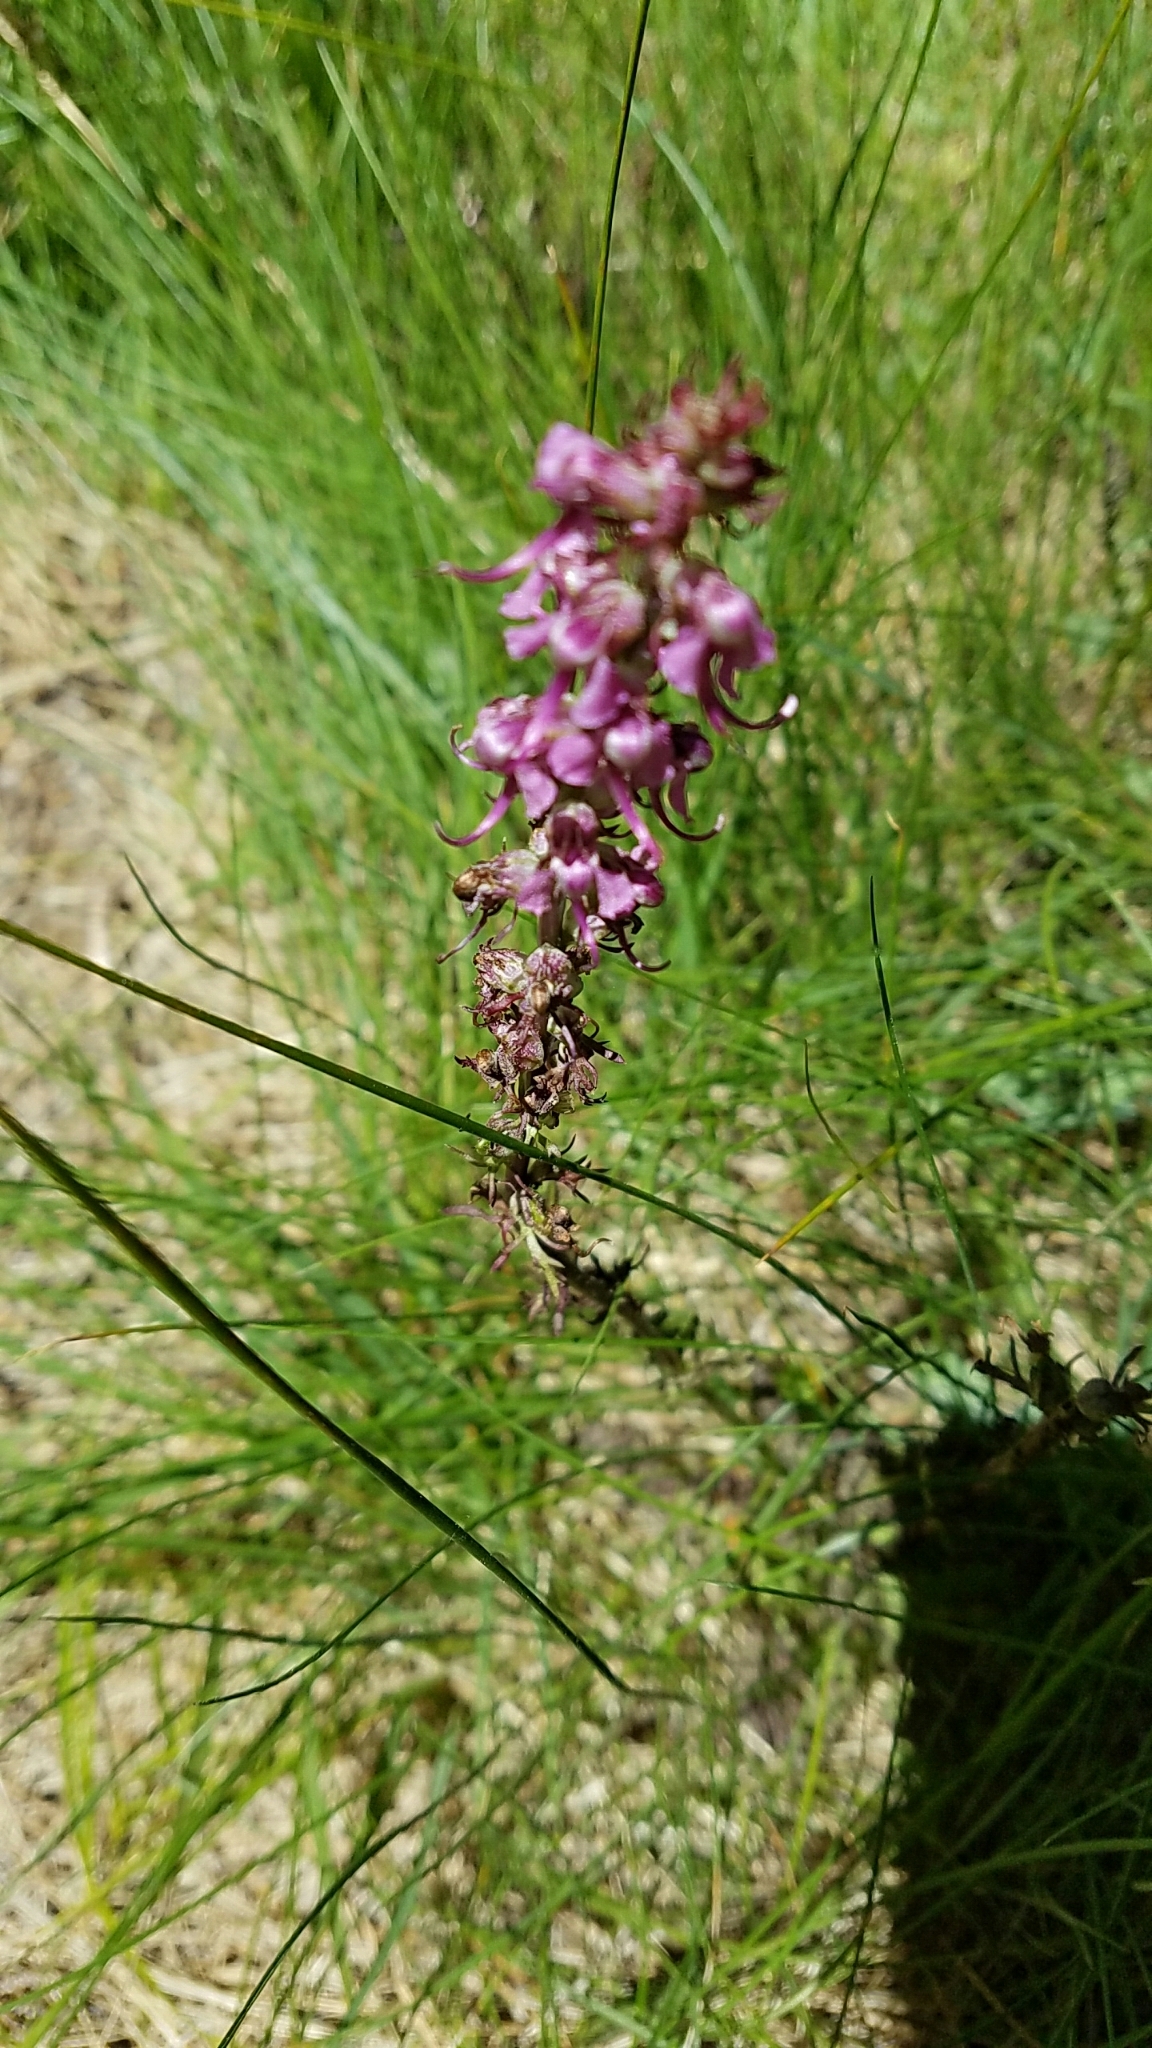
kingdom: Plantae
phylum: Tracheophyta
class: Magnoliopsida
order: Lamiales
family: Orobanchaceae
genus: Pedicularis
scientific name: Pedicularis groenlandica
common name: Elephant's-head
